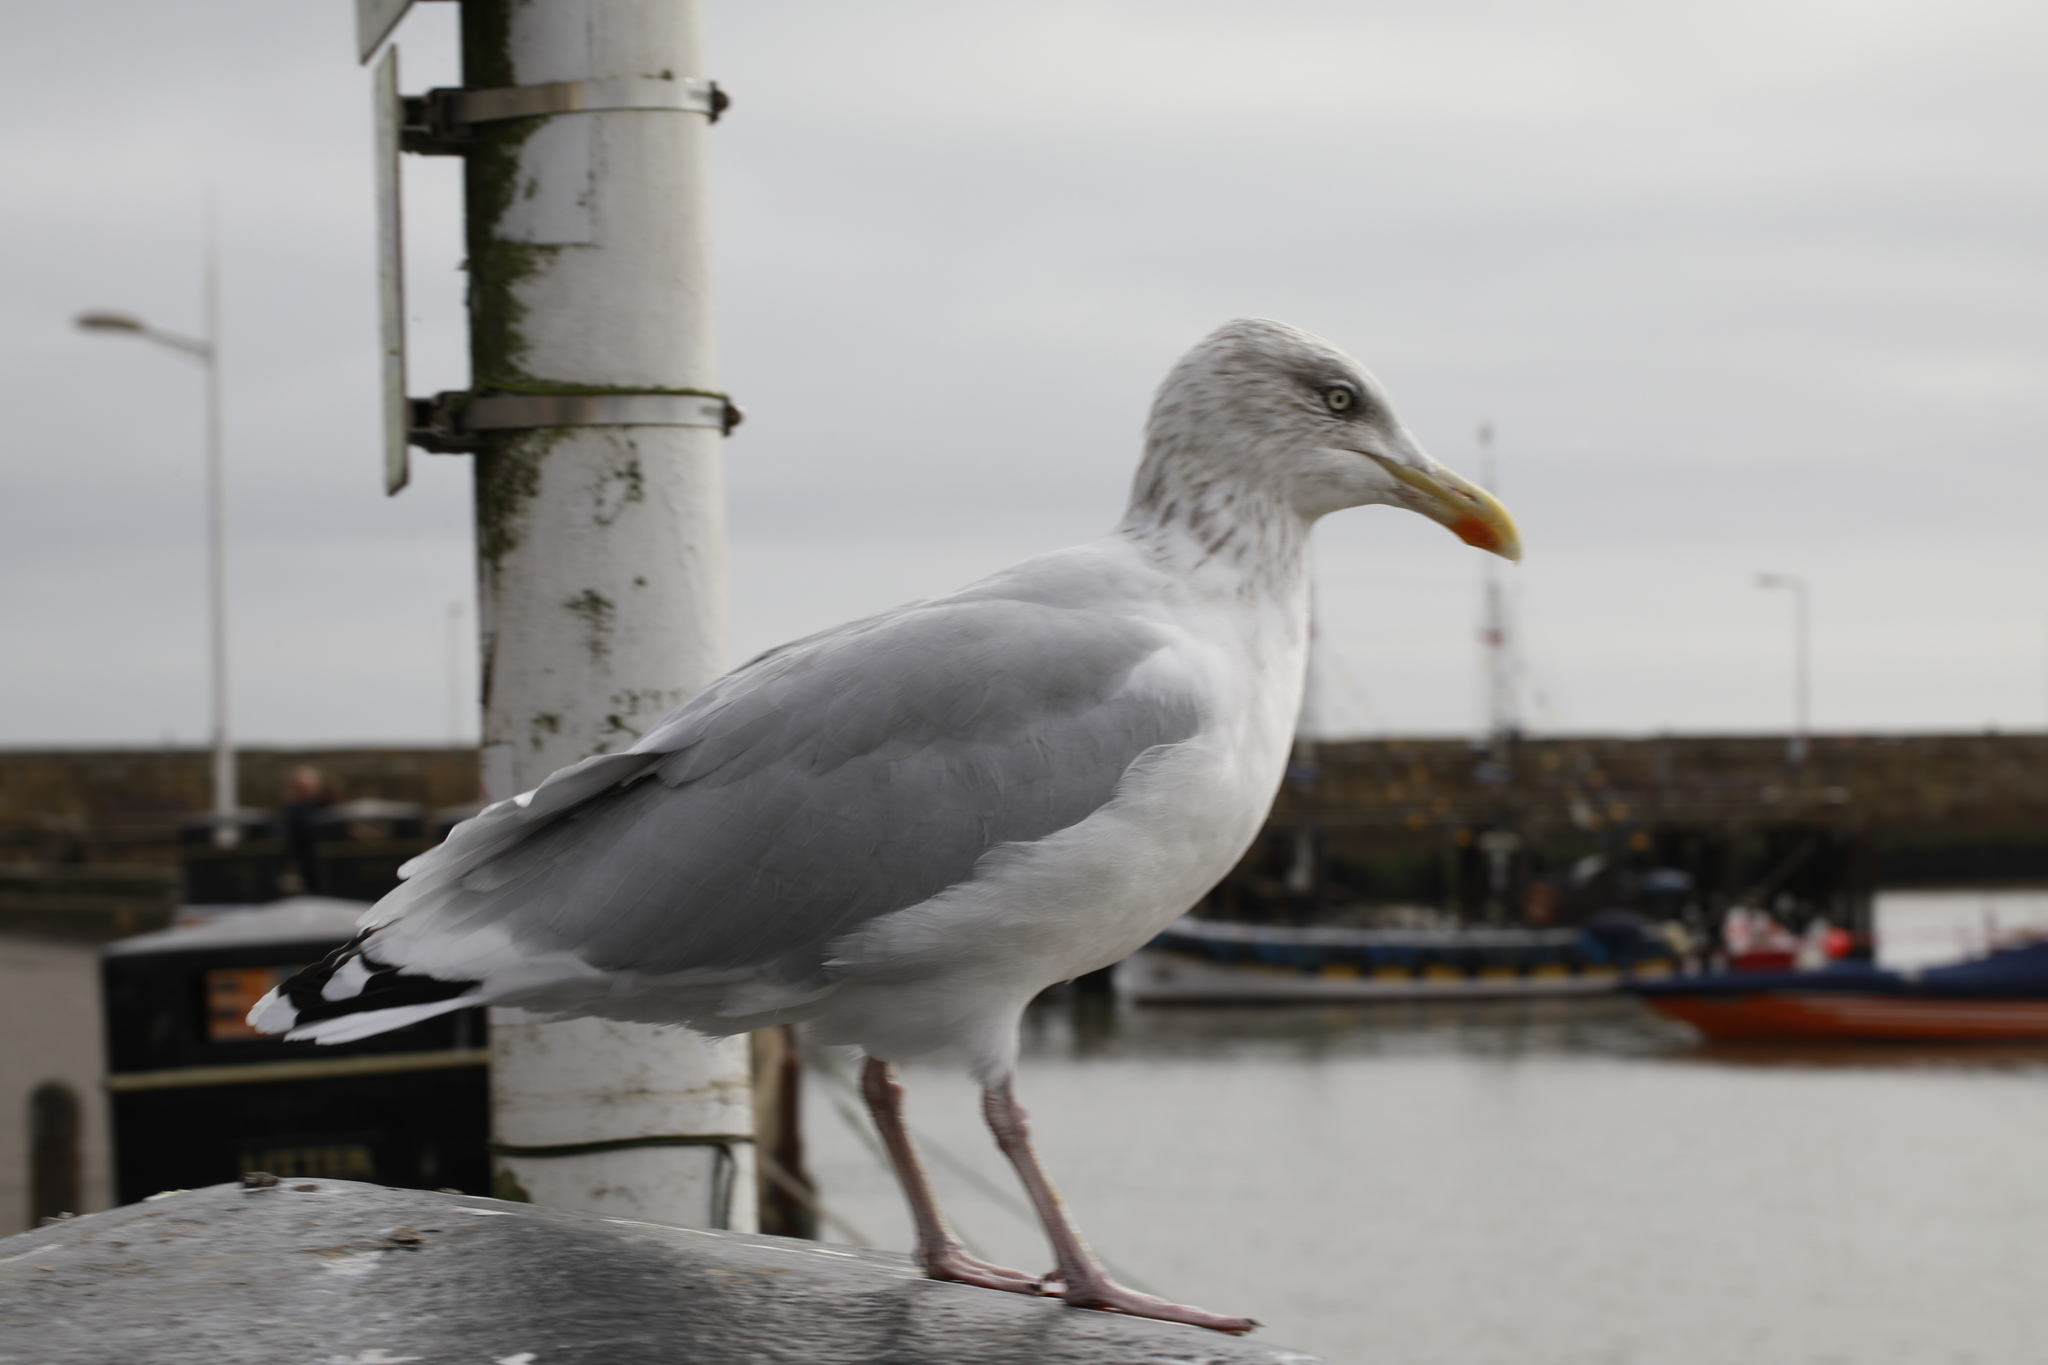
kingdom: Animalia
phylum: Chordata
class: Aves
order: Charadriiformes
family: Laridae
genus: Larus
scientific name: Larus argentatus
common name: Herring gull
